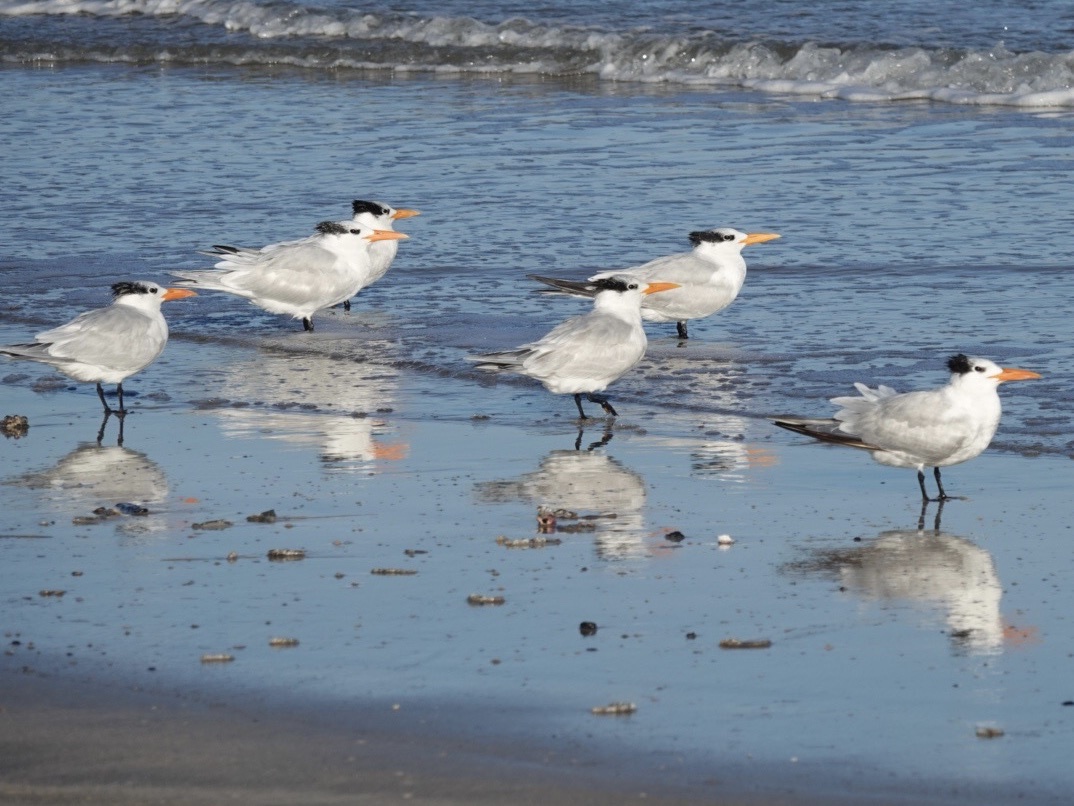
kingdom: Animalia
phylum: Chordata
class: Aves
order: Charadriiformes
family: Laridae
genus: Thalasseus
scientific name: Thalasseus maximus
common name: Royal tern
